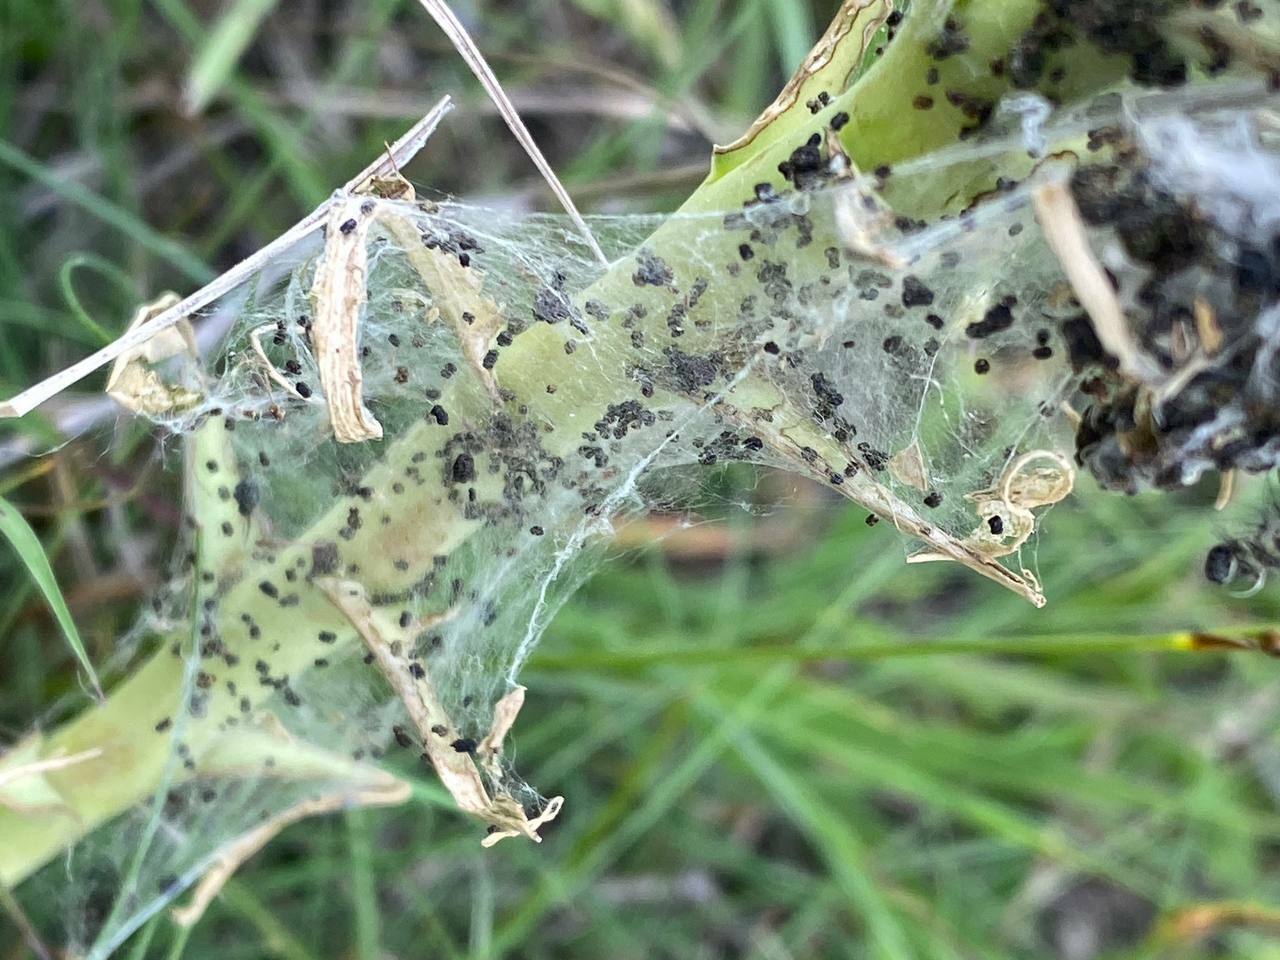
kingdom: Animalia
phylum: Arthropoda
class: Insecta
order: Lepidoptera
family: Noctuidae
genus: Acronicta
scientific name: Acronicta
